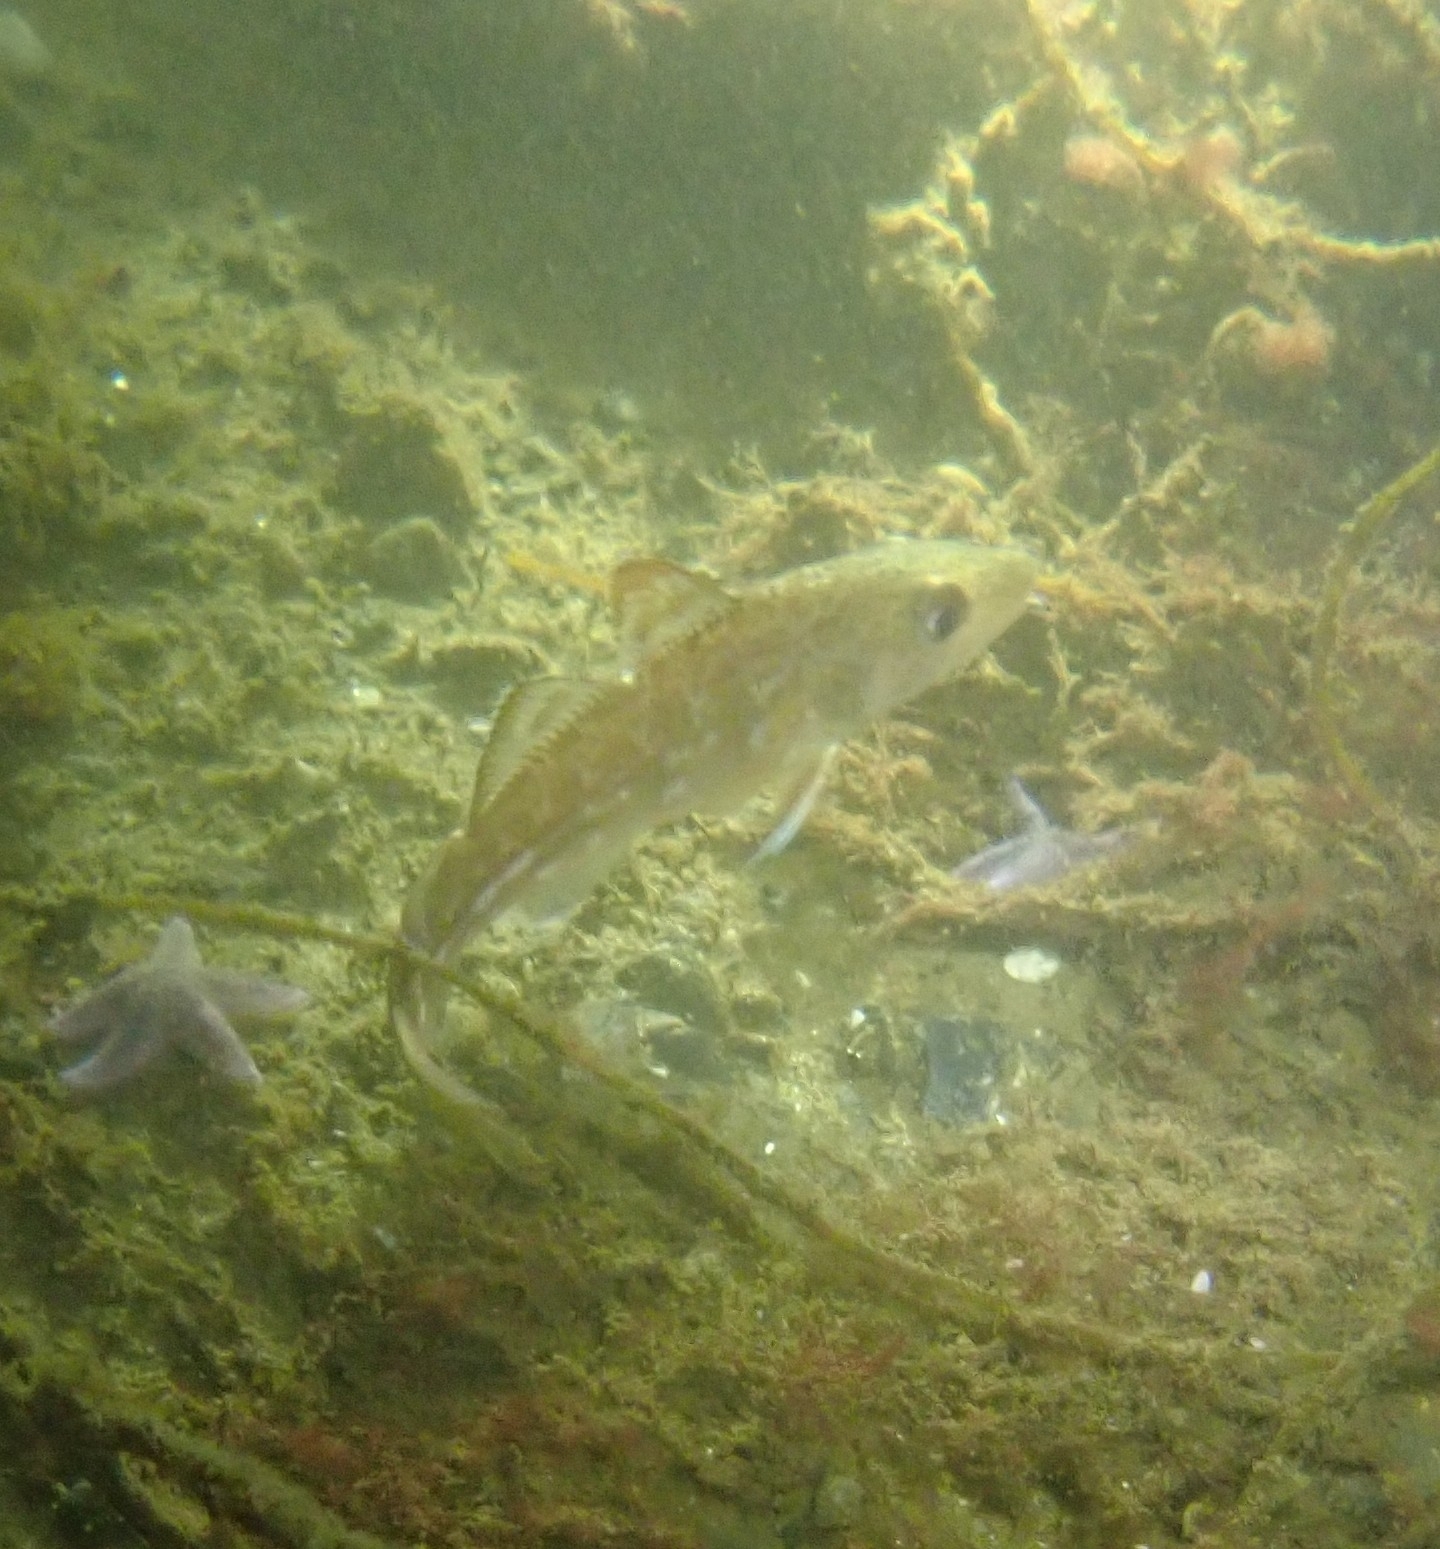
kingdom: Animalia
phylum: Chordata
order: Gadiformes
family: Gadidae
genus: Gadus
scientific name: Gadus morhua
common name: Atlantic cod
